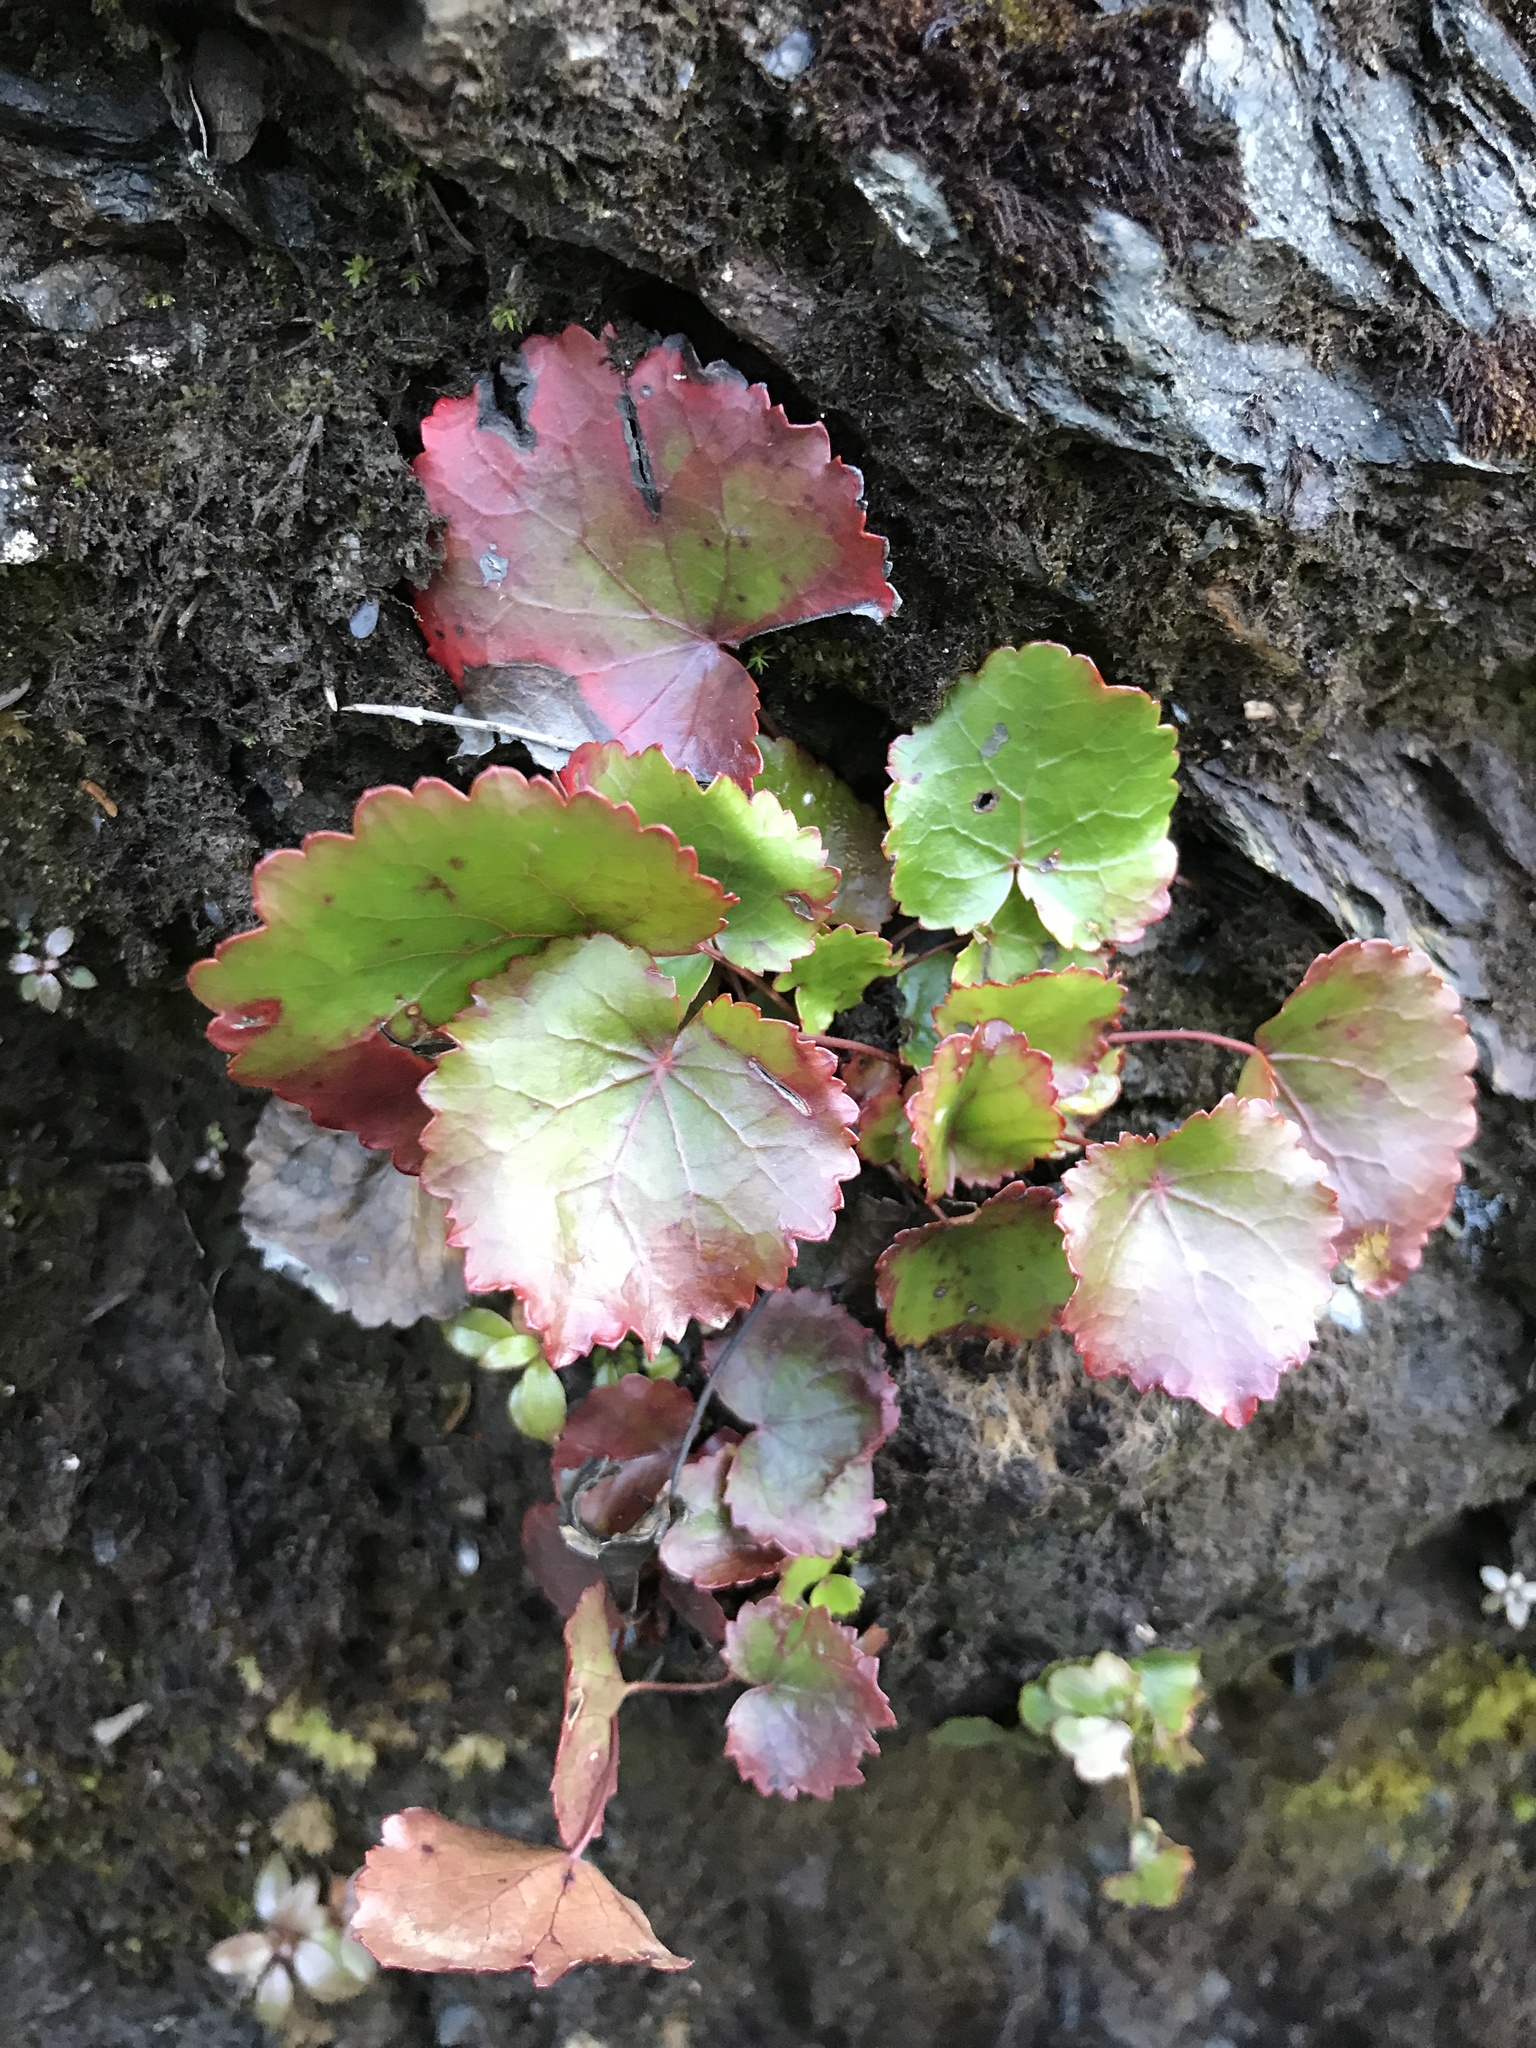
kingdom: Plantae
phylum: Tracheophyta
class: Magnoliopsida
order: Ericales
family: Diapensiaceae
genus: Galax
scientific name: Galax urceolata
